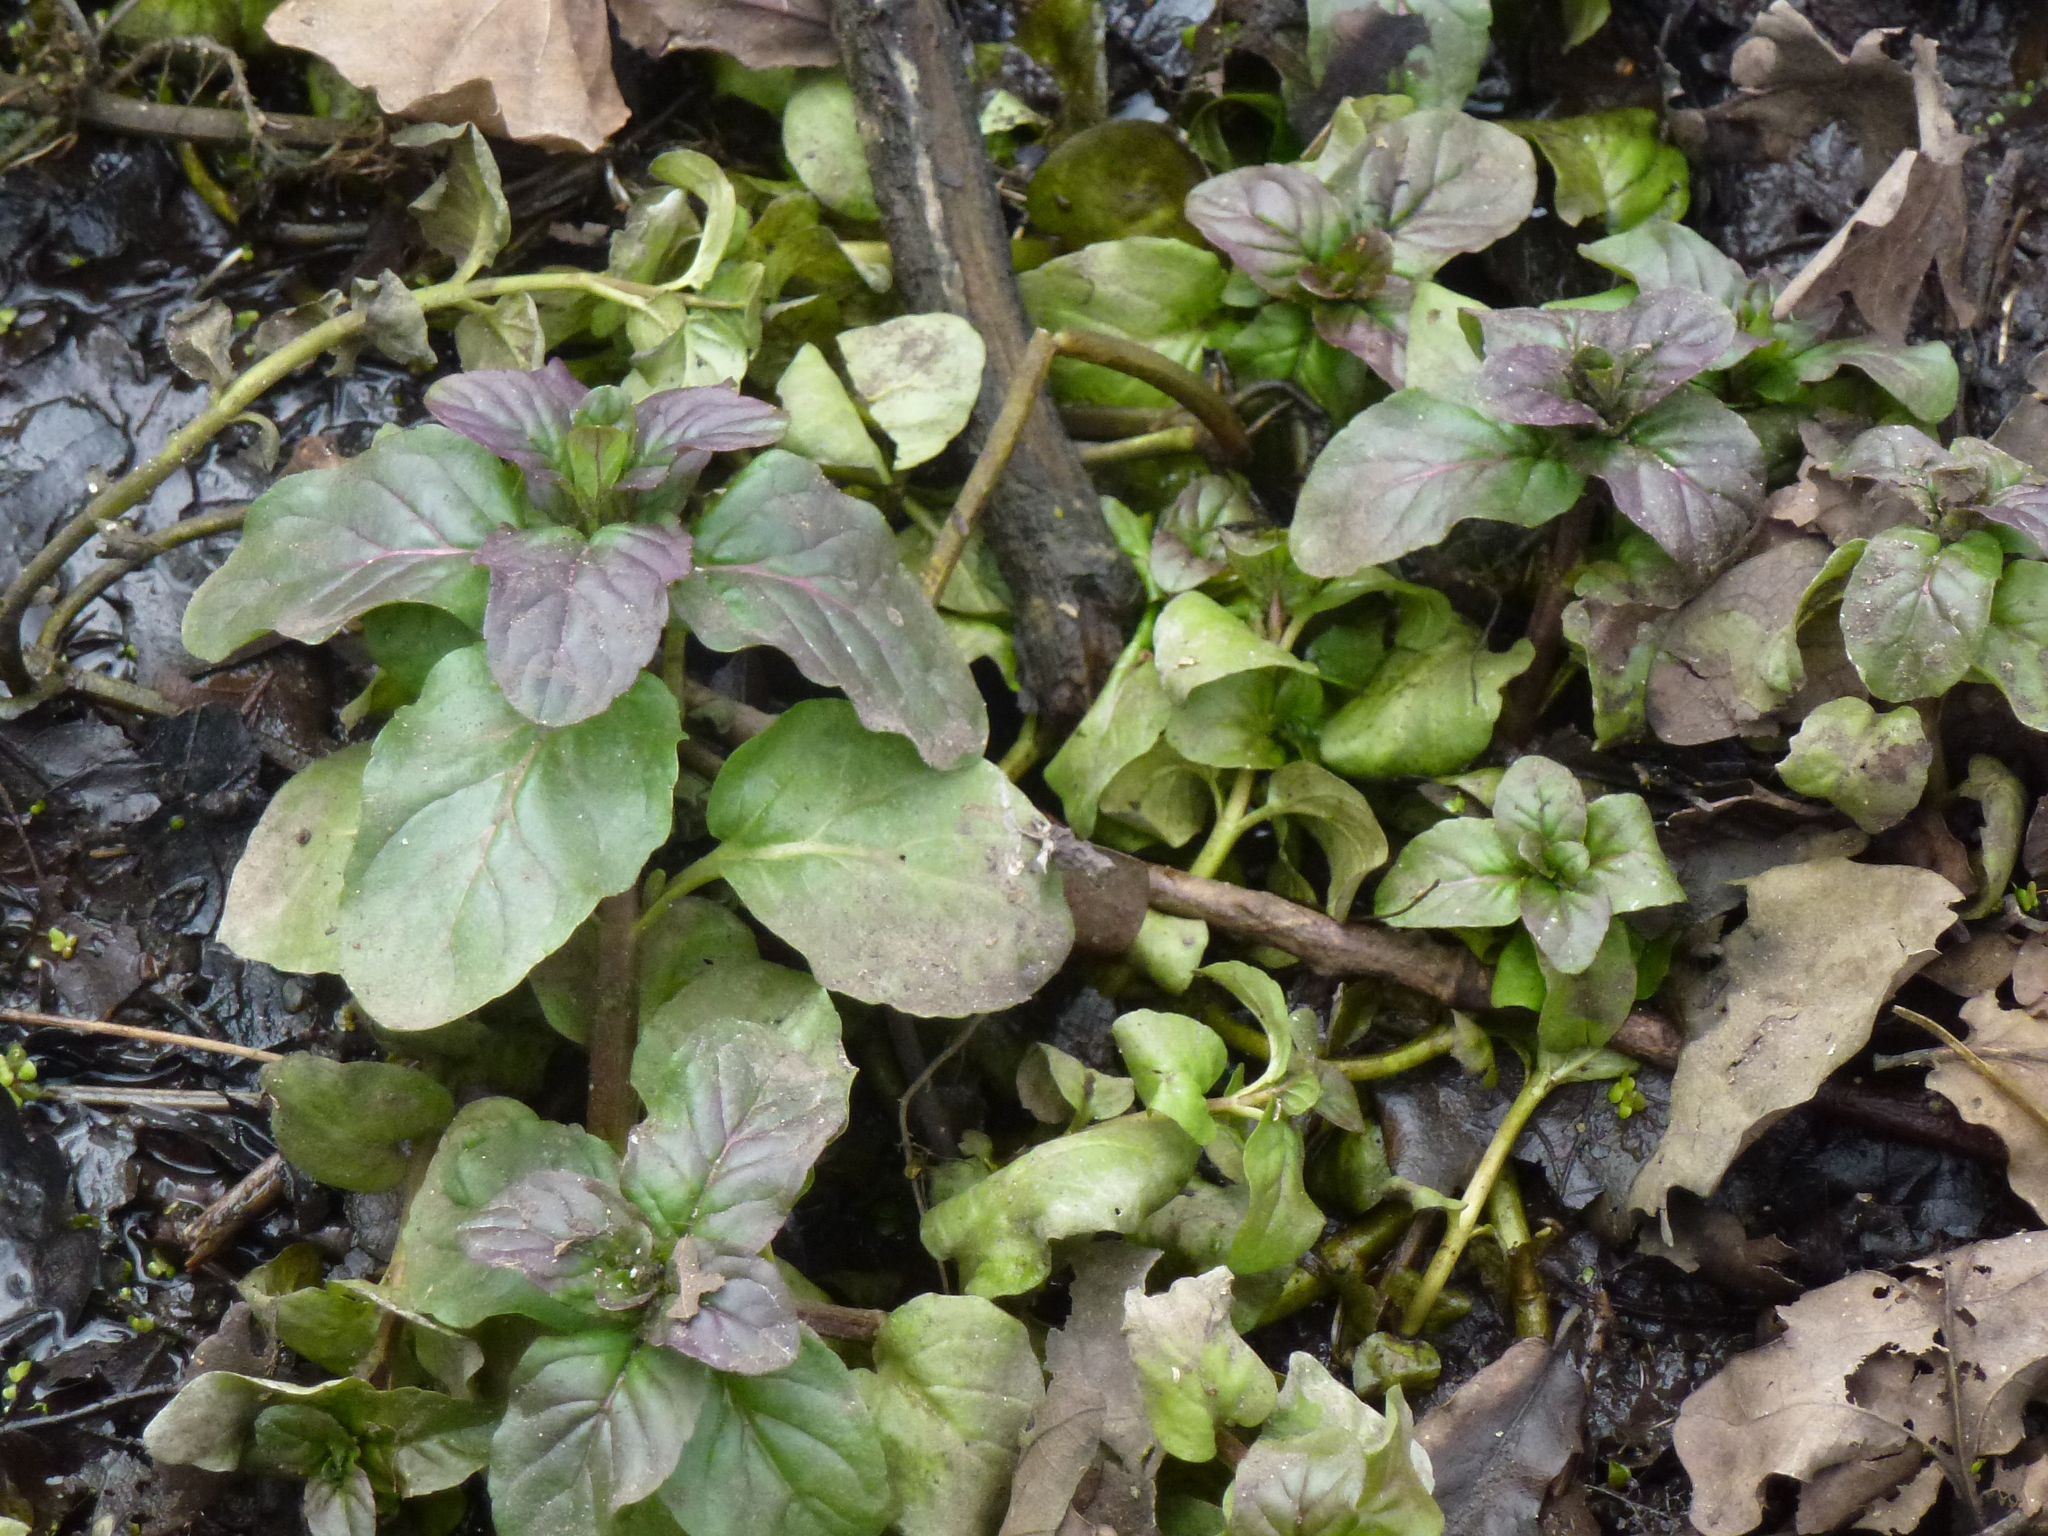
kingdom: Plantae
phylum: Tracheophyta
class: Magnoliopsida
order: Lamiales
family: Lamiaceae
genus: Mentha
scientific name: Mentha aquatica
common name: Water mint
